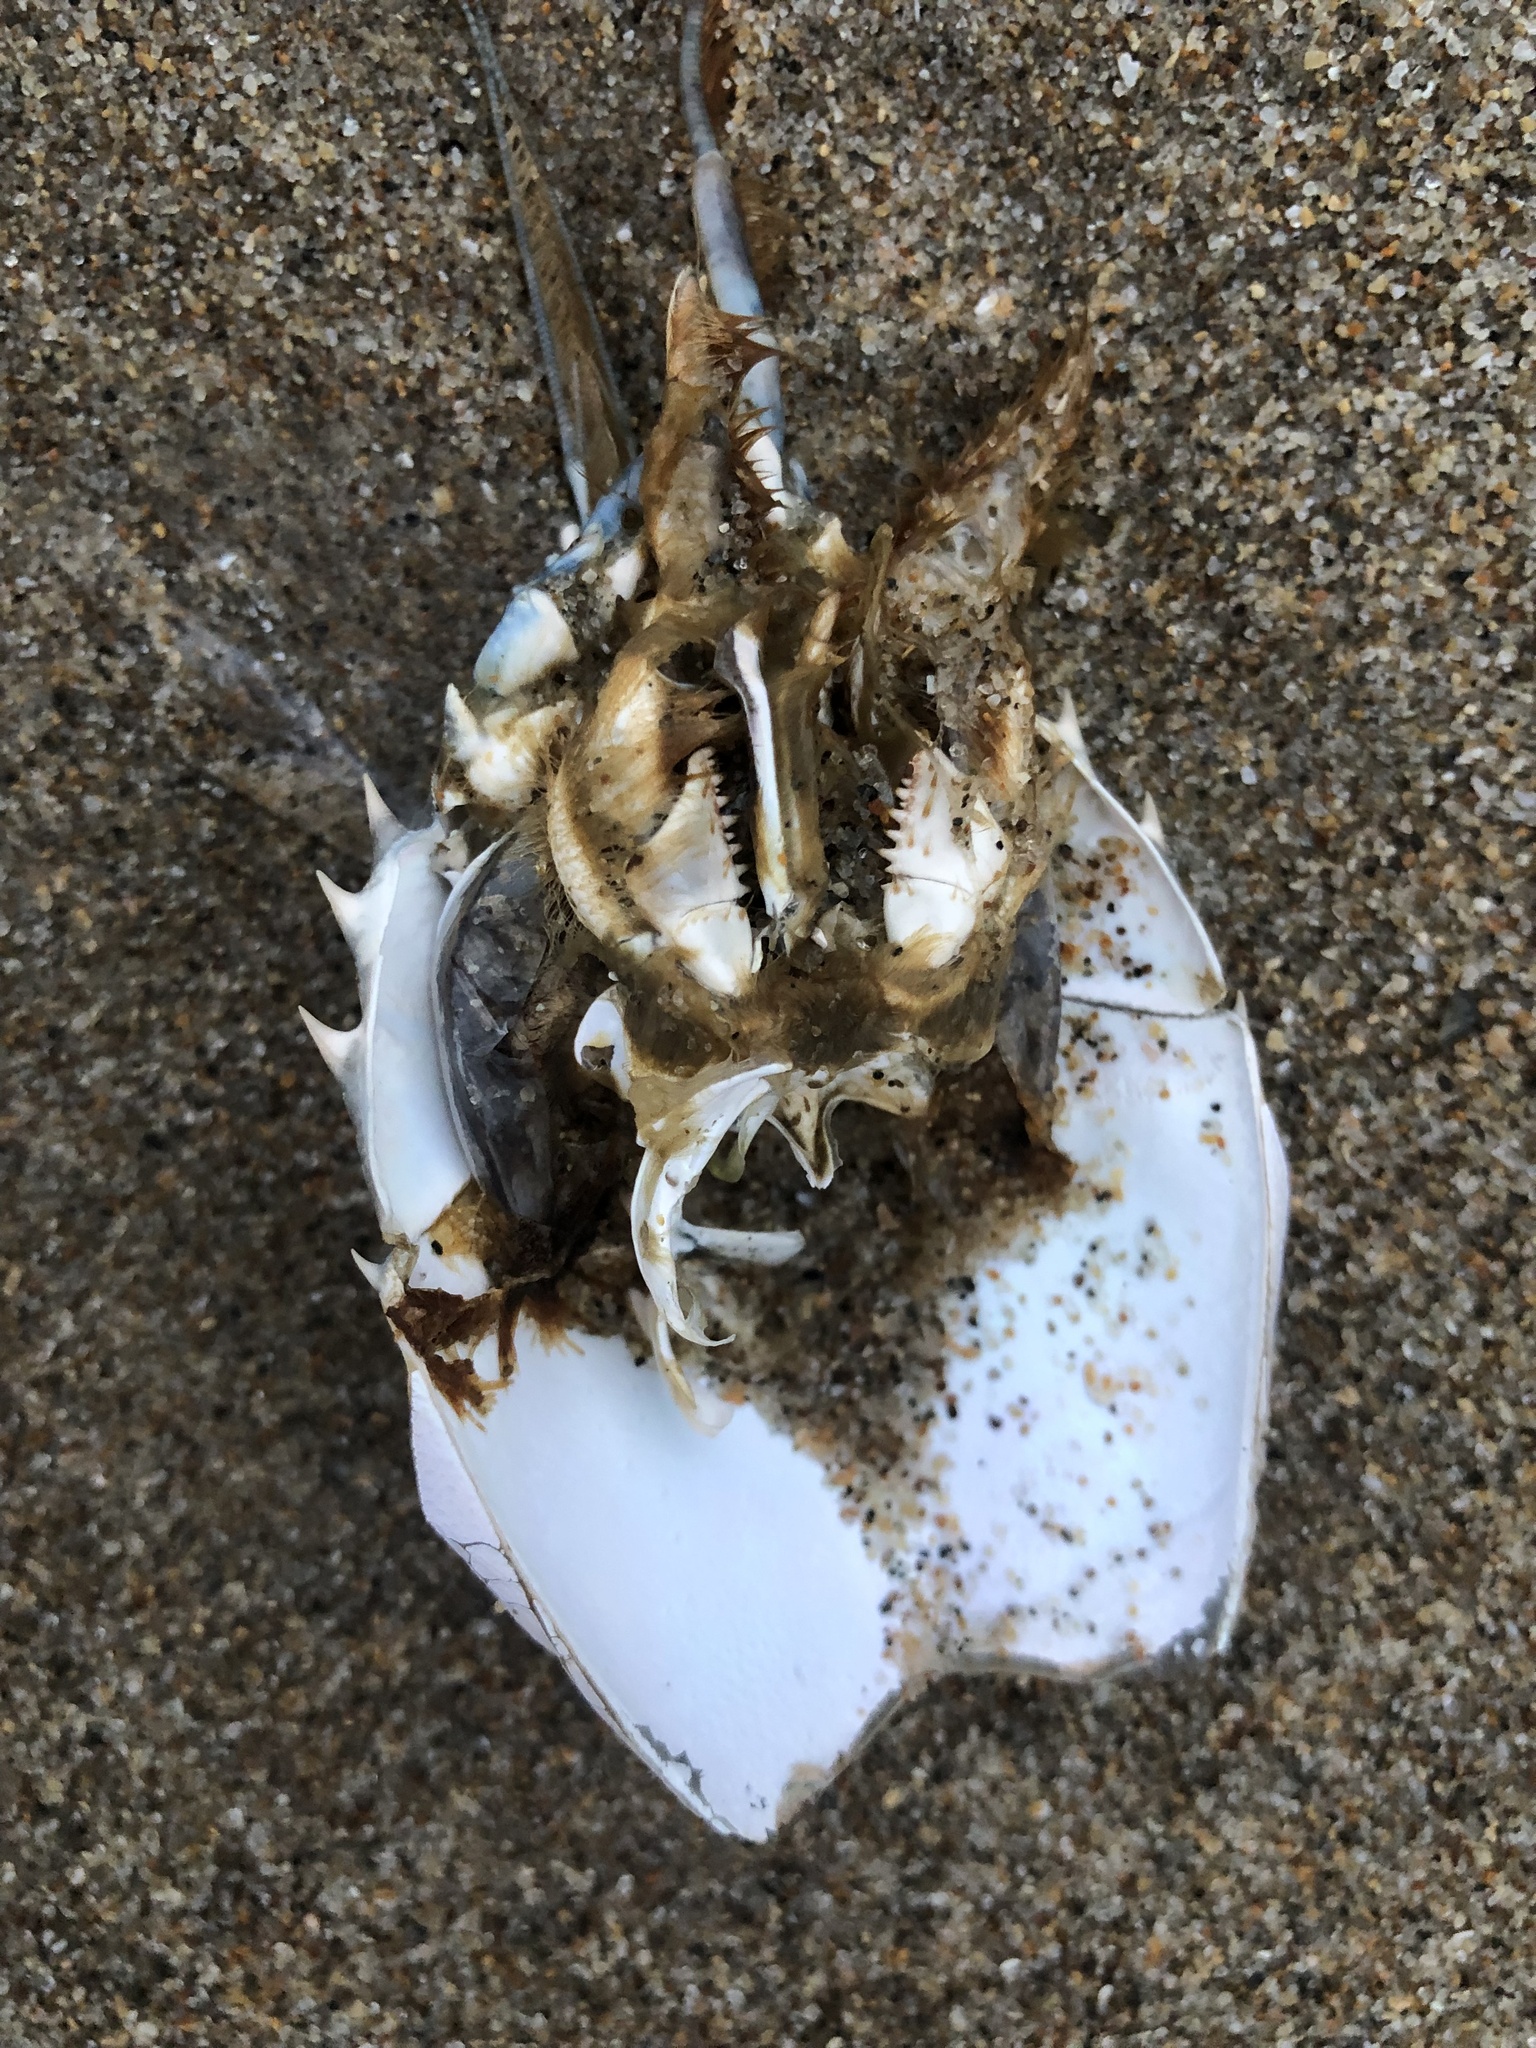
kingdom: Chromista
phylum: Ochrophyta
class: Phaeophyceae
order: Laminariales
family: Lessoniaceae
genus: Egregia
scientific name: Egregia menziesii
